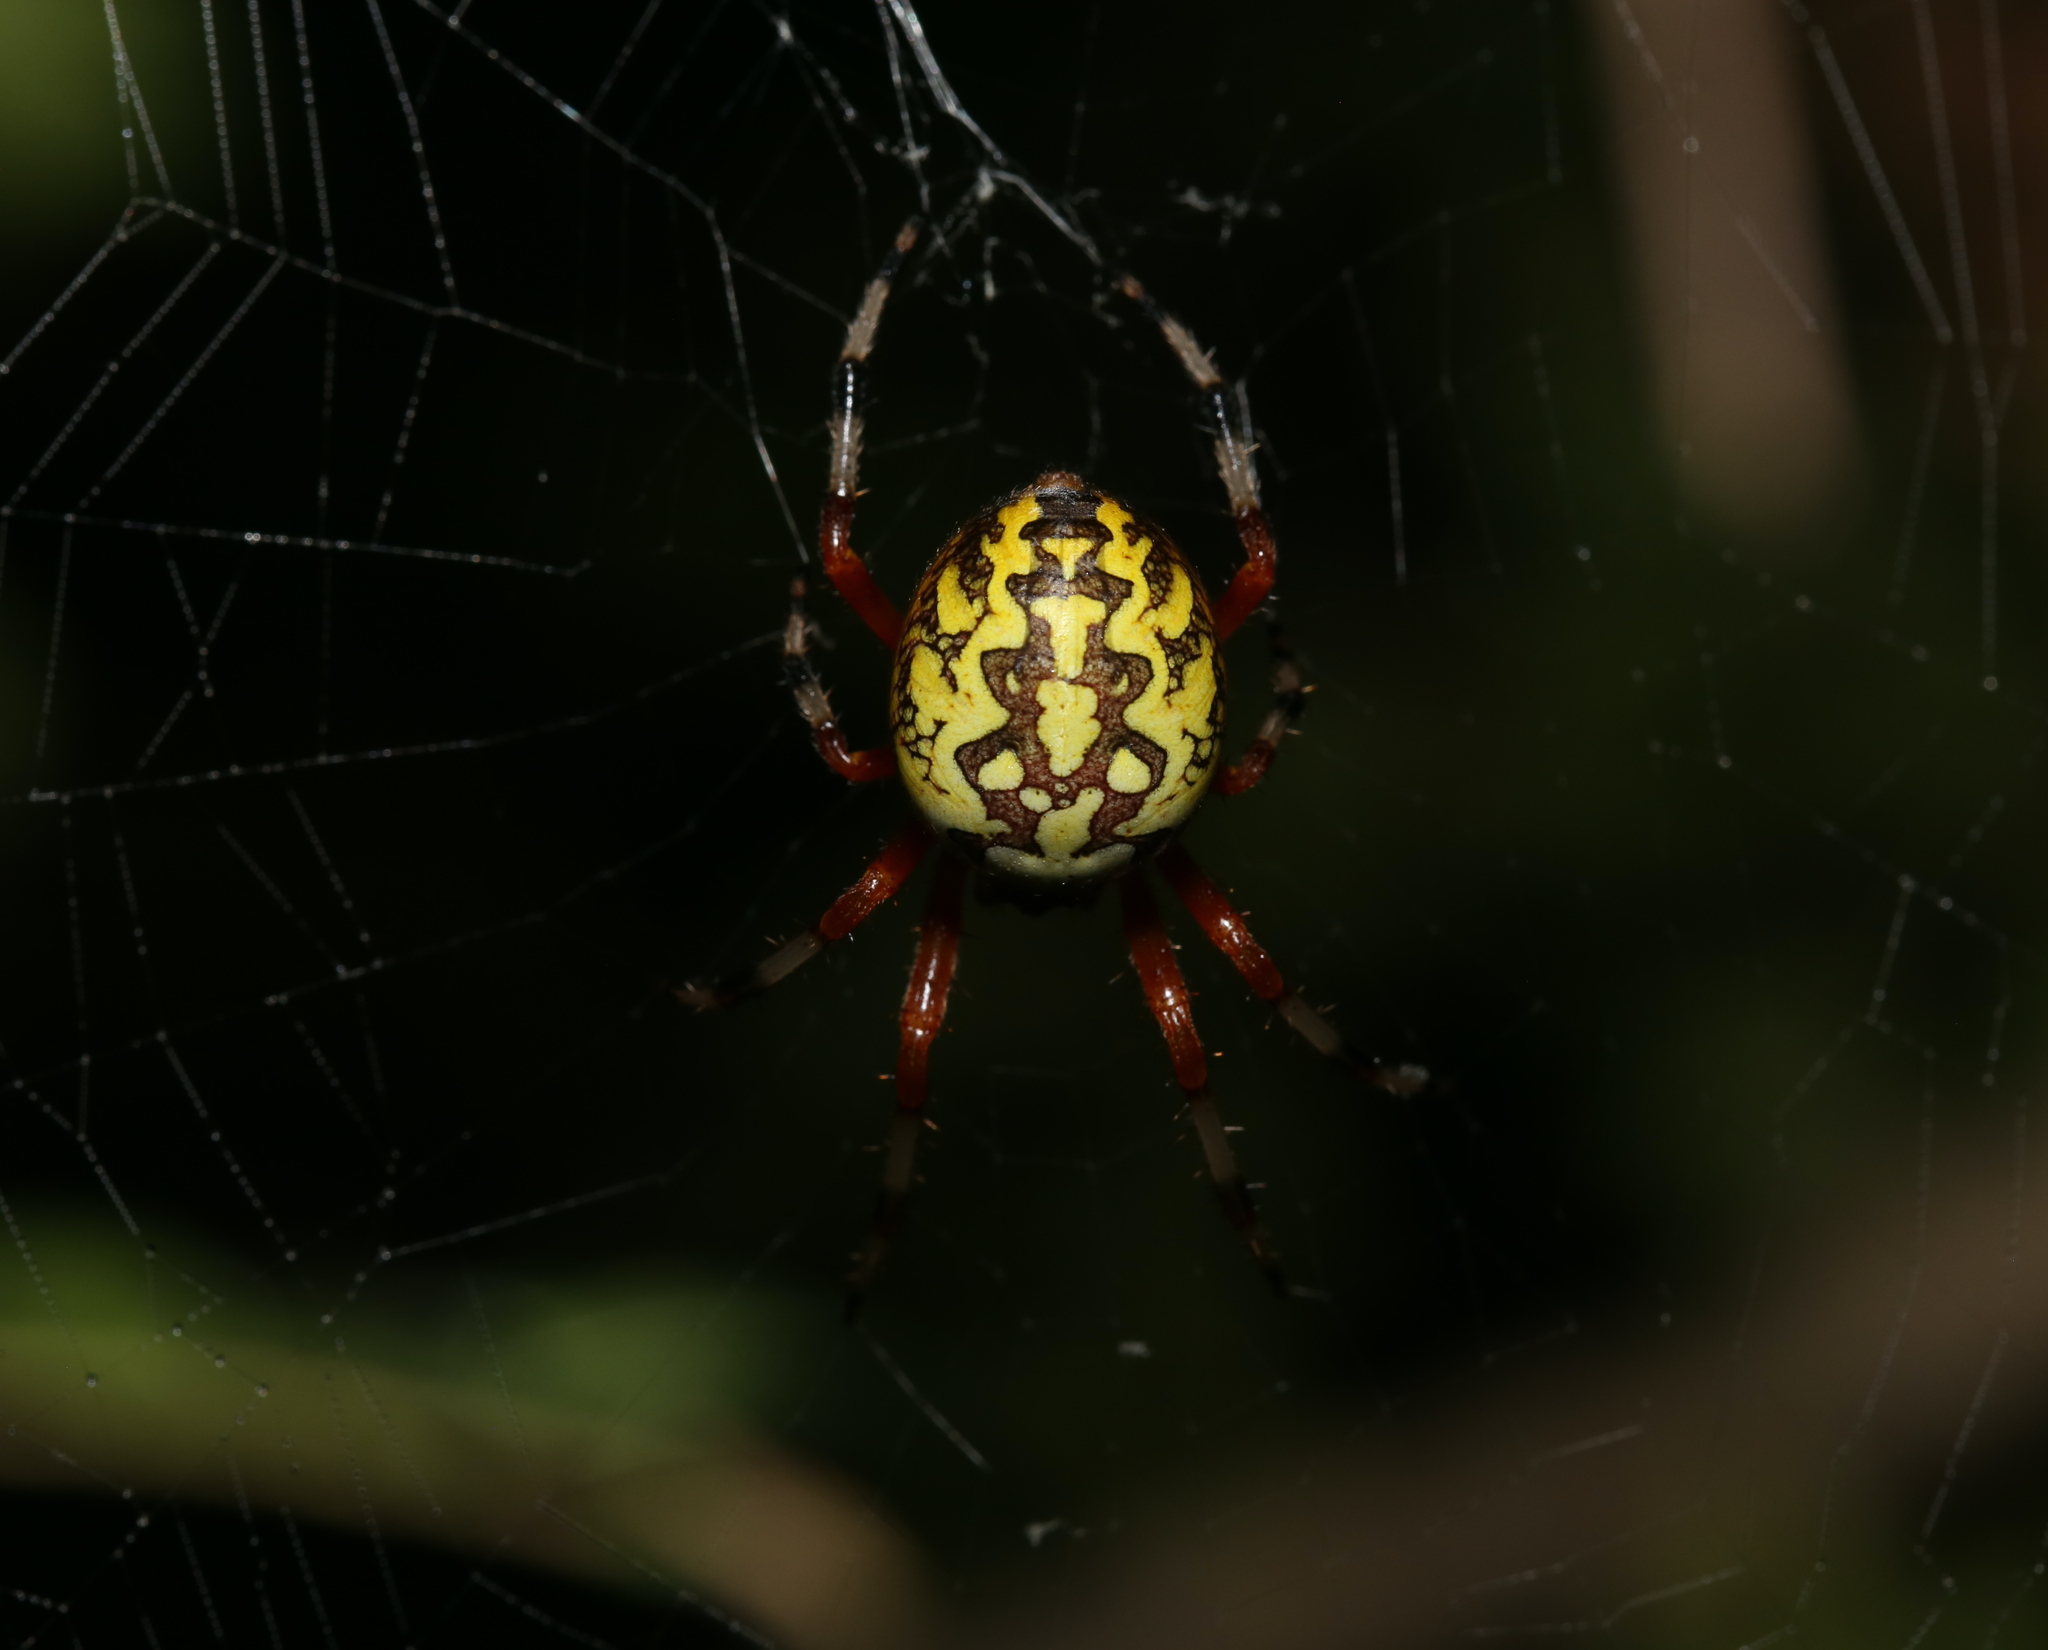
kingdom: Animalia
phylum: Arthropoda
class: Arachnida
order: Araneae
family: Araneidae
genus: Araneus
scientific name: Araneus marmoreus
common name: Marbled orbweaver
